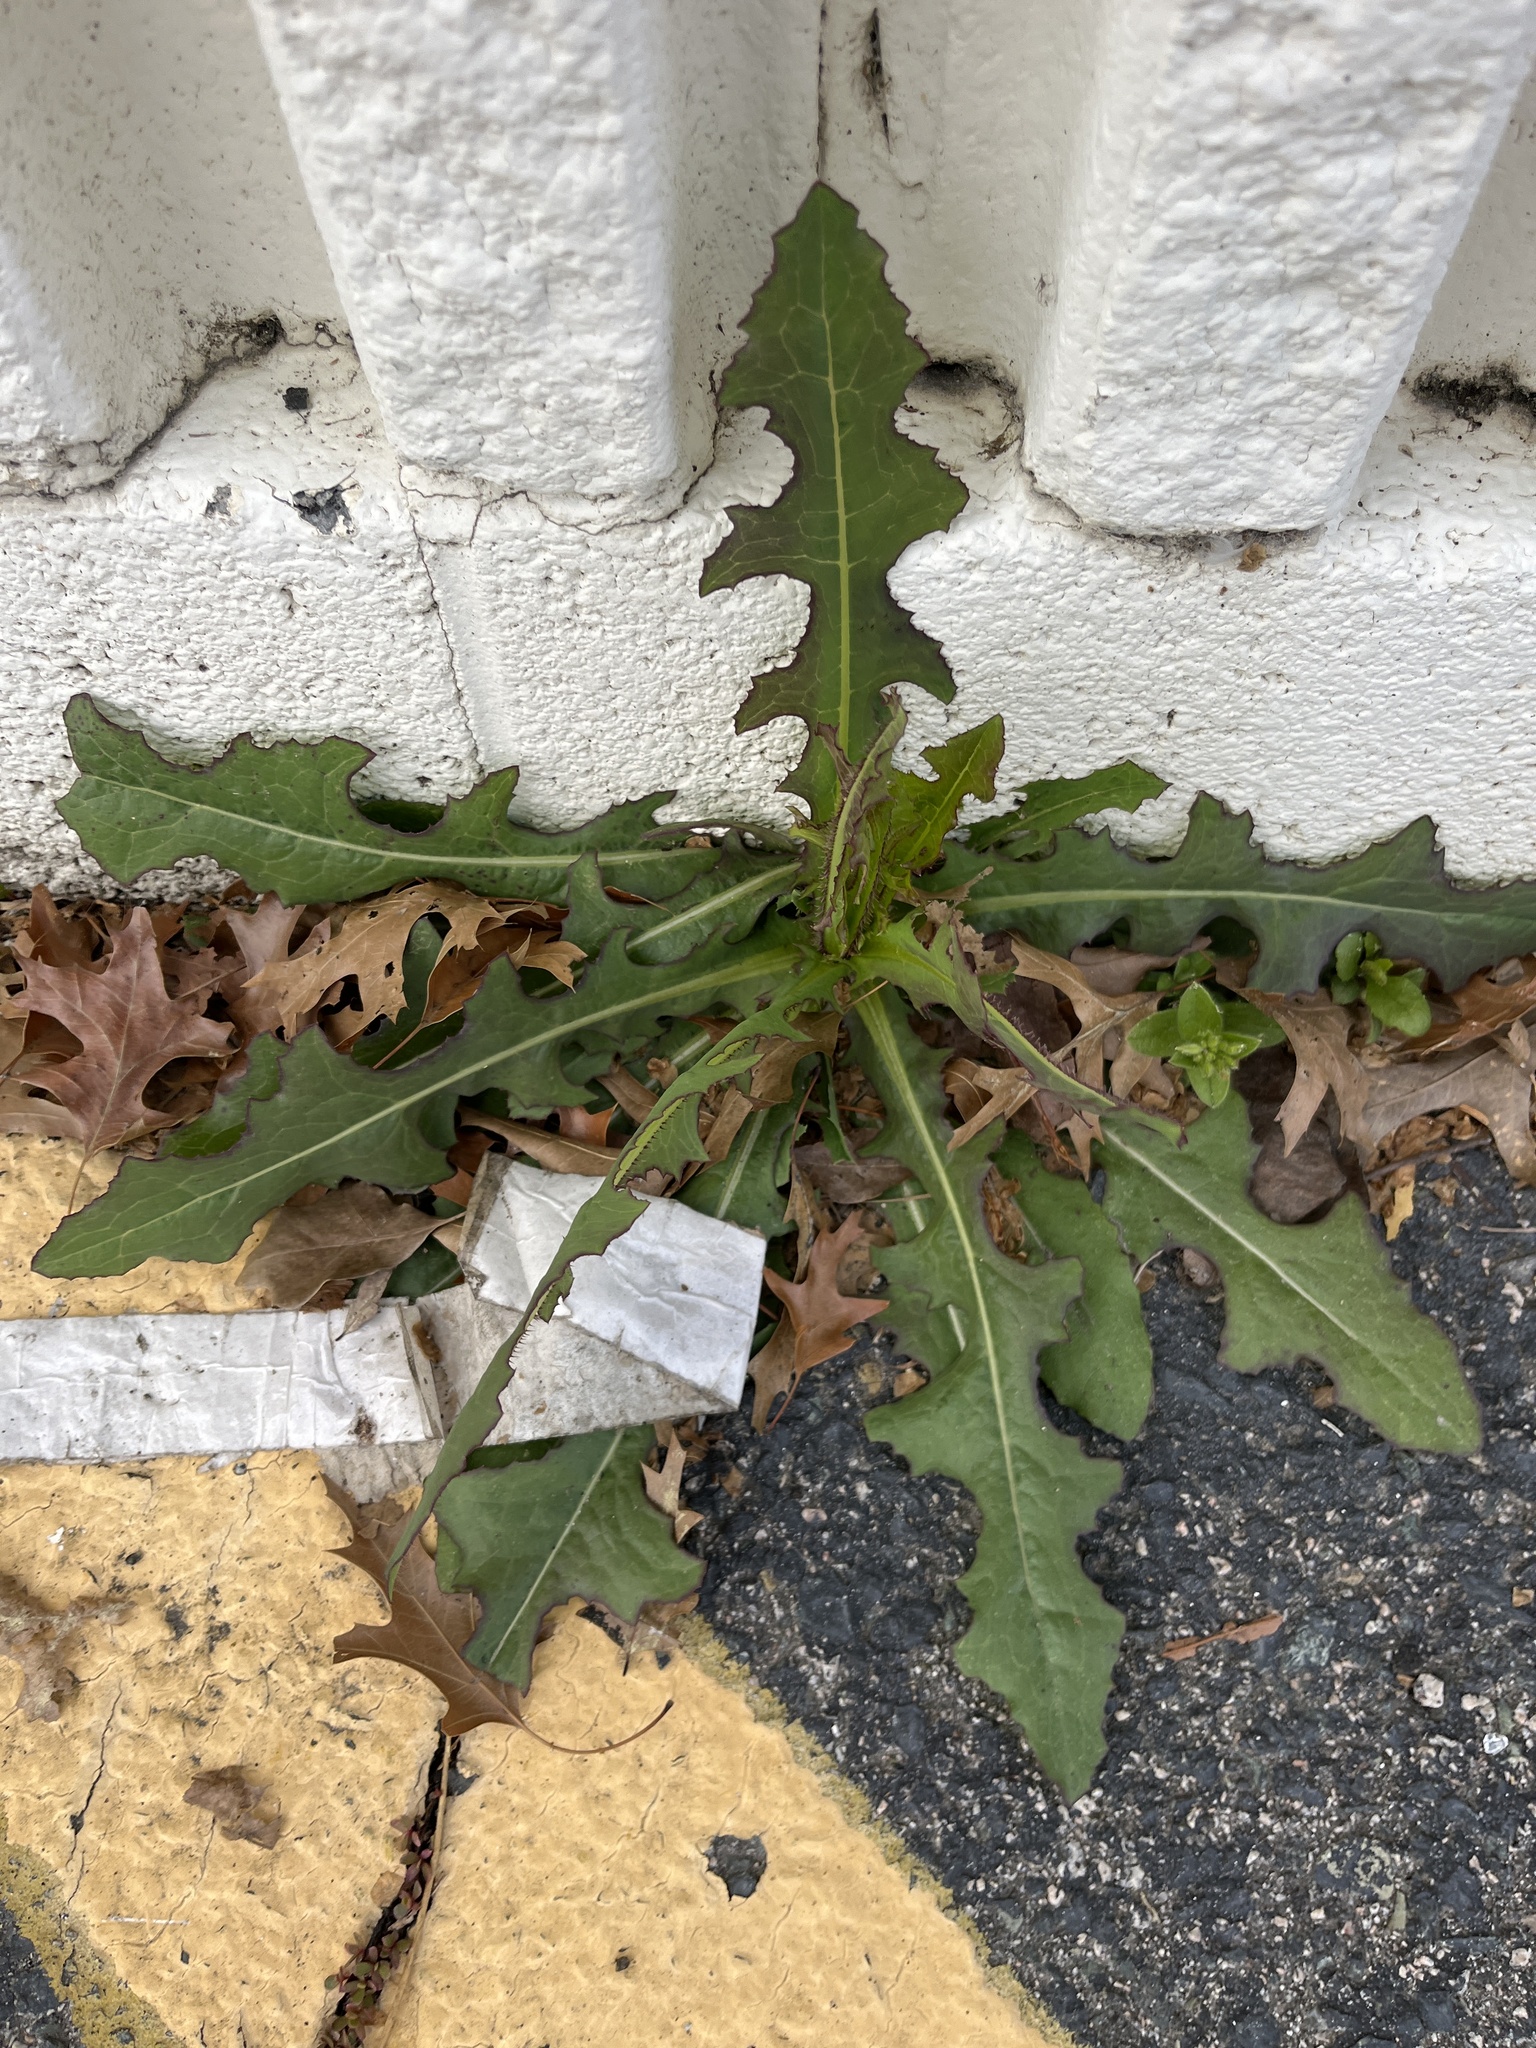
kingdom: Plantae
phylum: Tracheophyta
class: Magnoliopsida
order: Asterales
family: Asteraceae
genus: Lactuca
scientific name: Lactuca serriola
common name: Prickly lettuce
